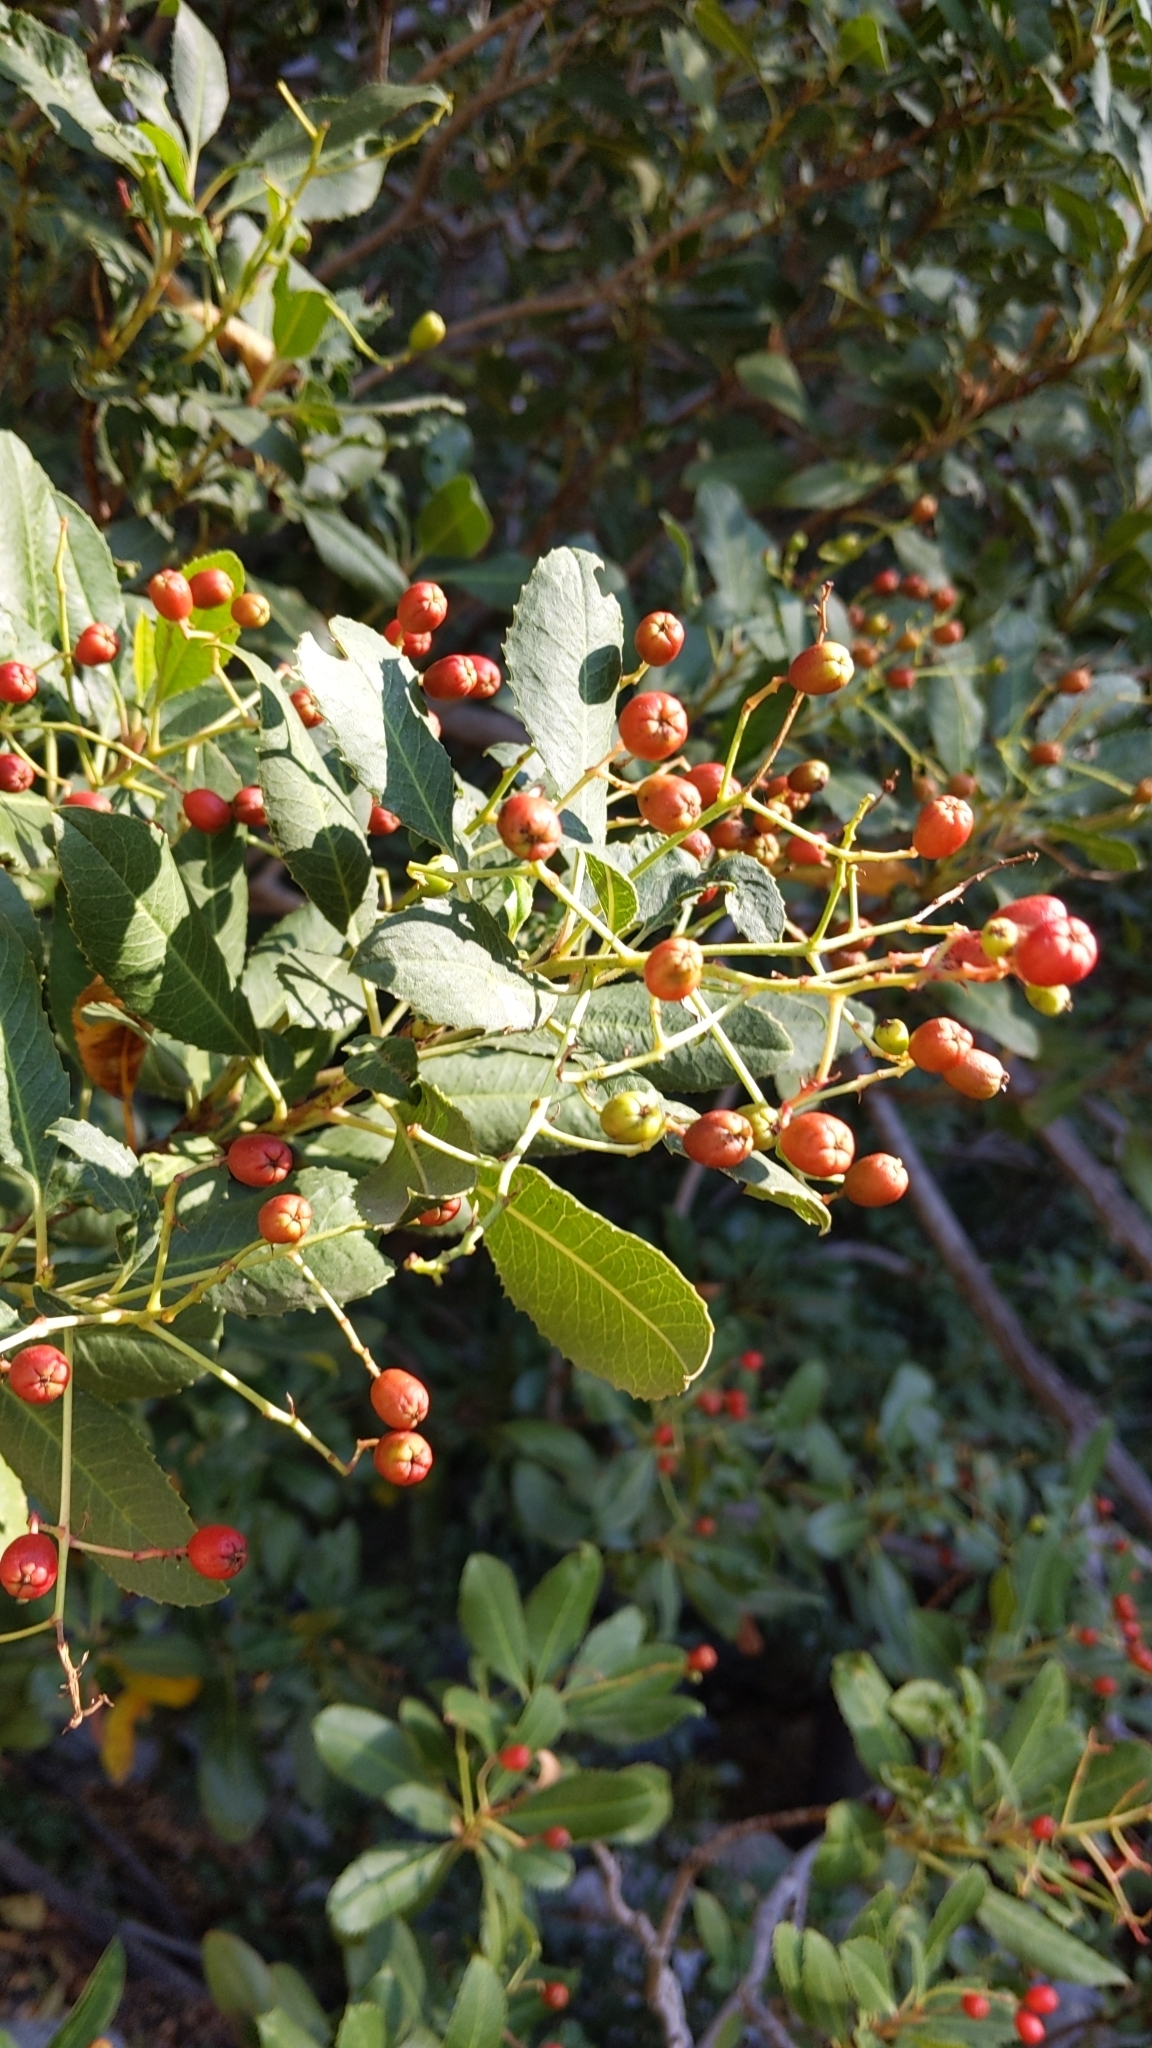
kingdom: Plantae
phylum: Tracheophyta
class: Magnoliopsida
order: Rosales
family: Rosaceae
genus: Heteromeles
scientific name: Heteromeles arbutifolia
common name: California-holly
